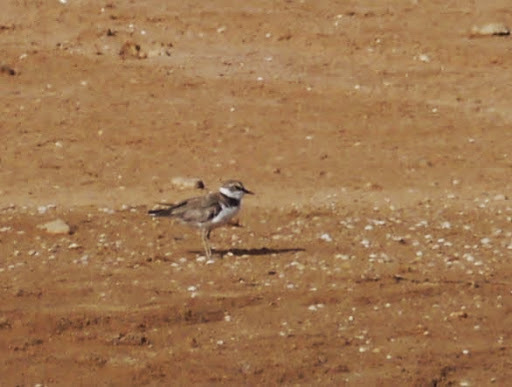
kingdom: Animalia
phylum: Chordata
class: Aves
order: Charadriiformes
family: Charadriidae
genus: Charadrius
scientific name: Charadrius dubius
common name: Little ringed plover
